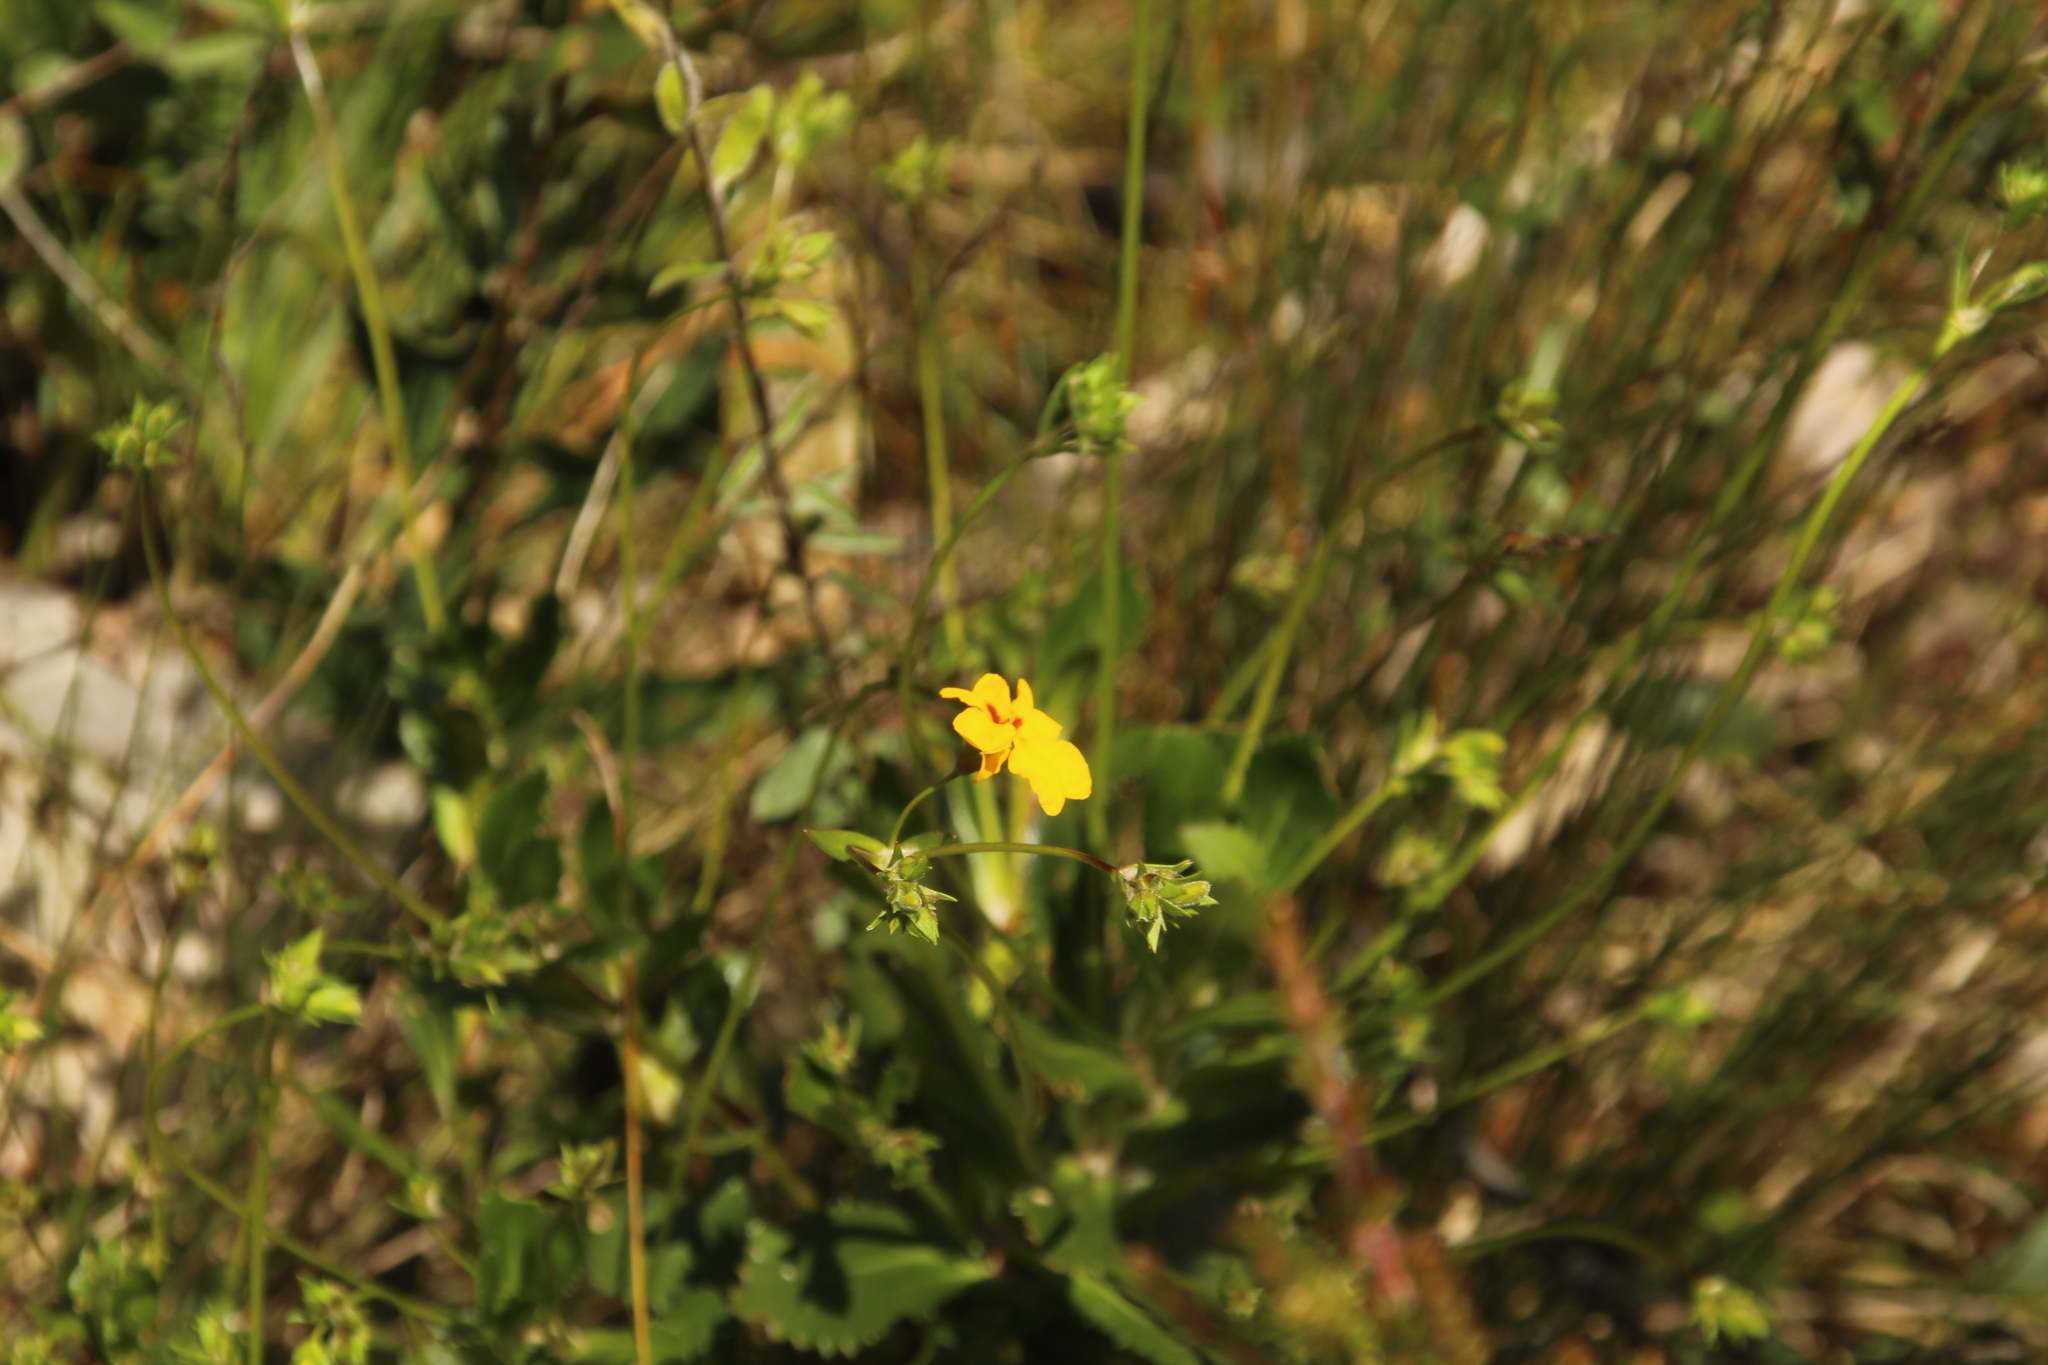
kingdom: Plantae
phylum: Tracheophyta
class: Magnoliopsida
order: Asterales
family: Goodeniaceae
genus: Goodenia
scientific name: Goodenia brendannarum
